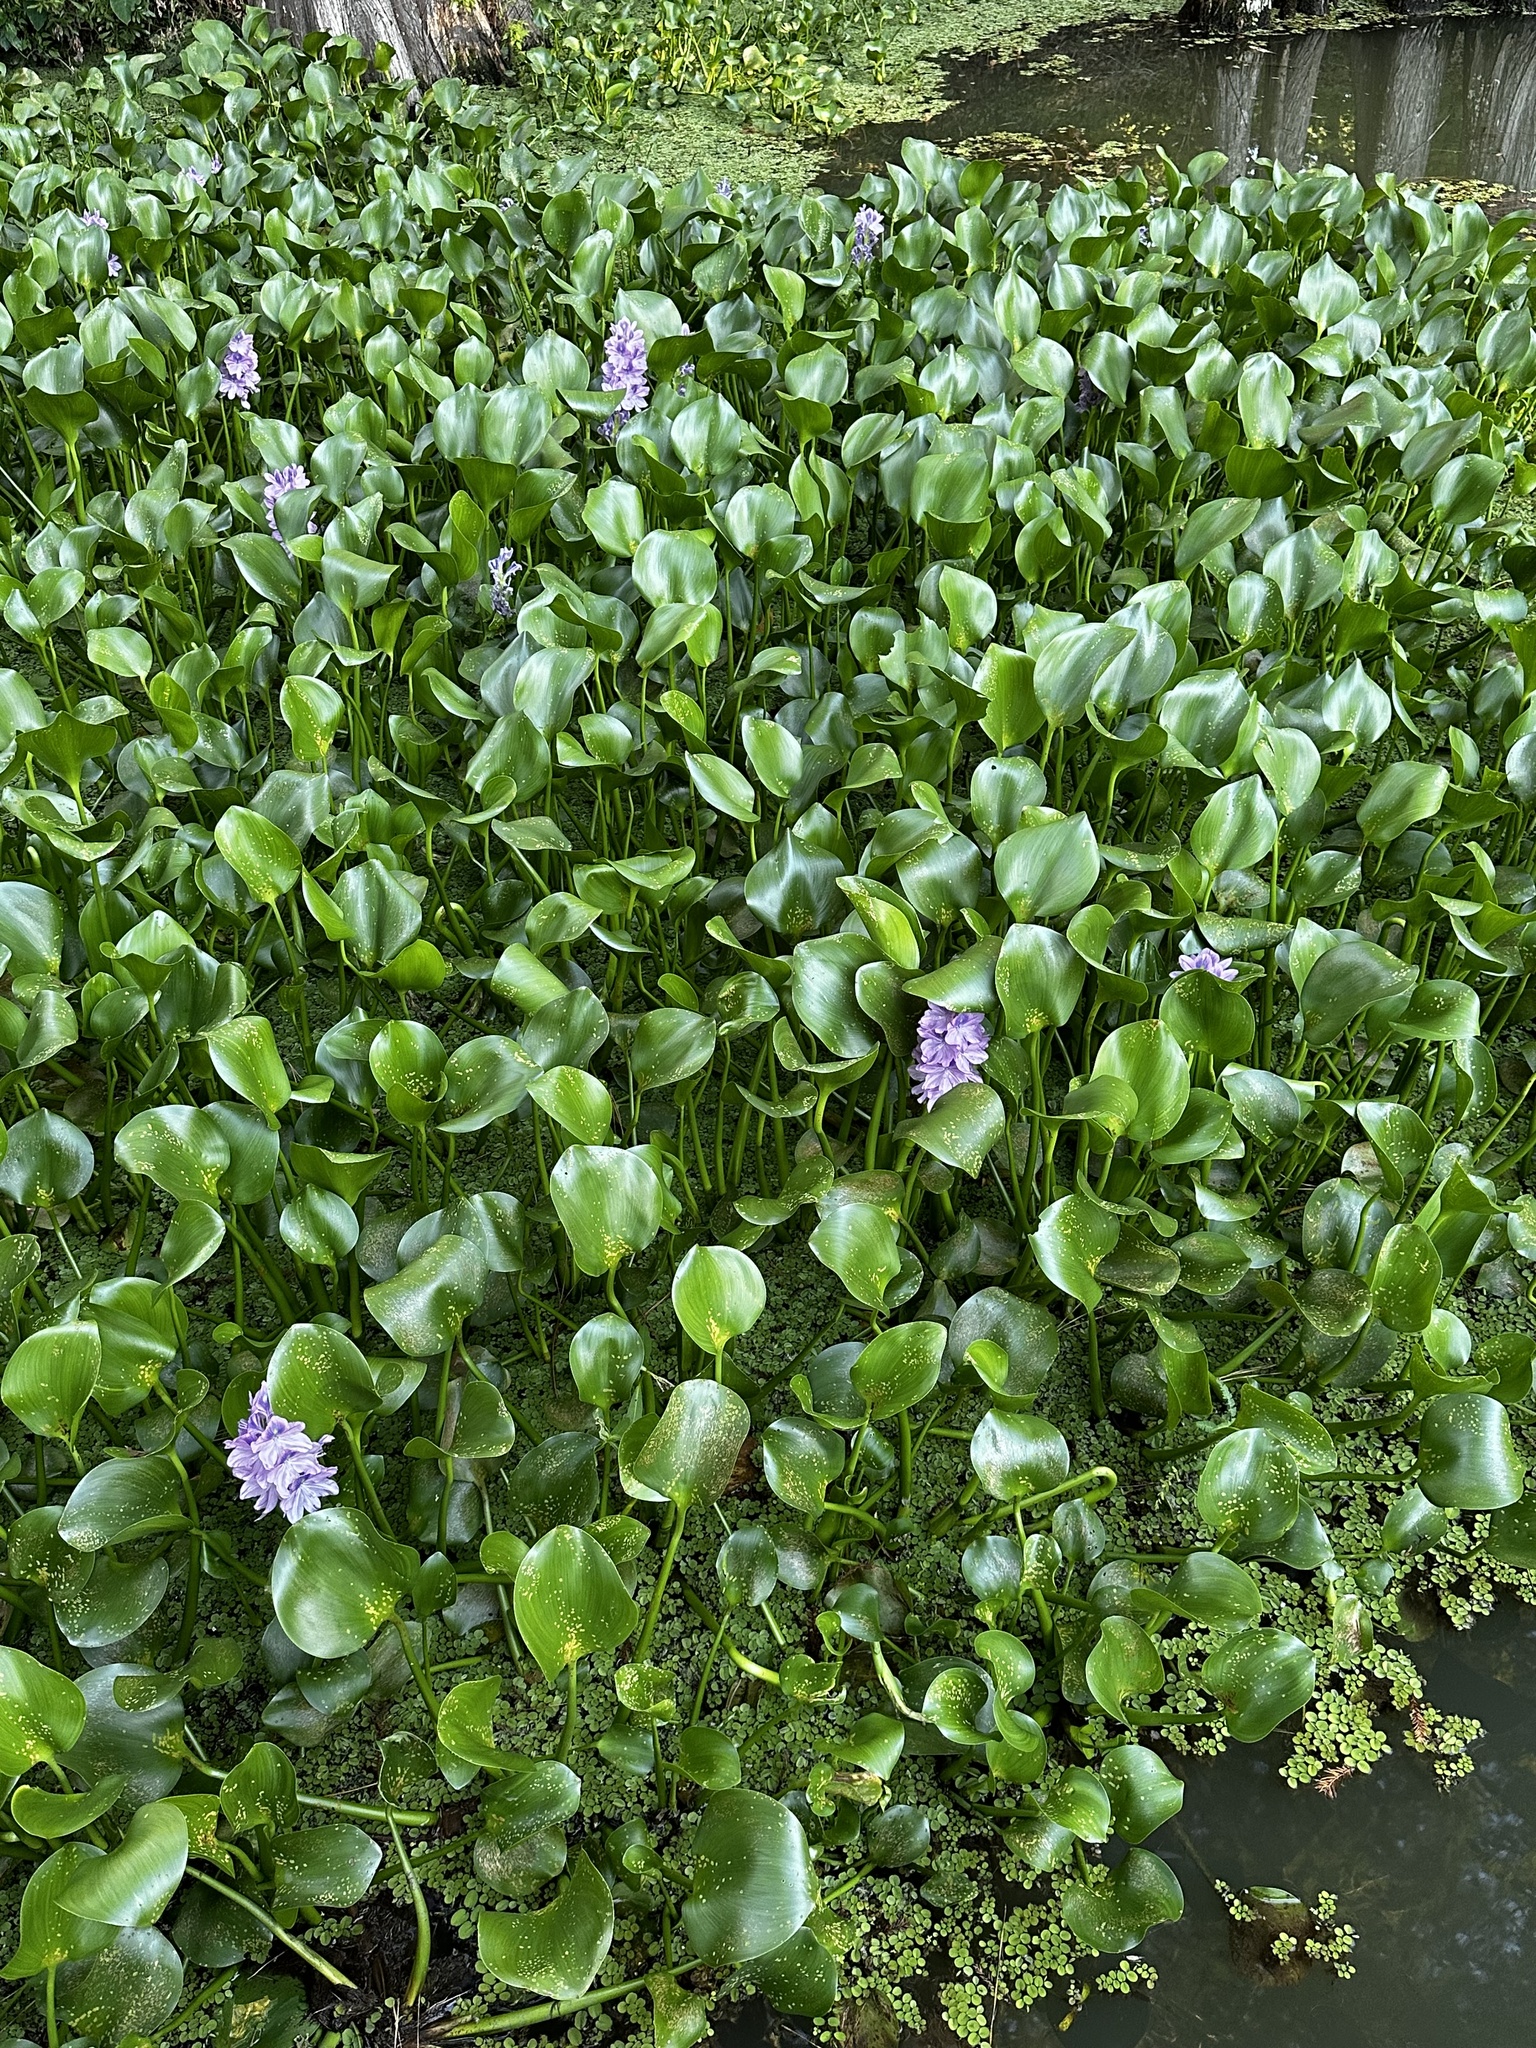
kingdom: Plantae
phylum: Tracheophyta
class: Liliopsida
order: Commelinales
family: Pontederiaceae
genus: Pontederia
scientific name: Pontederia crassipes
